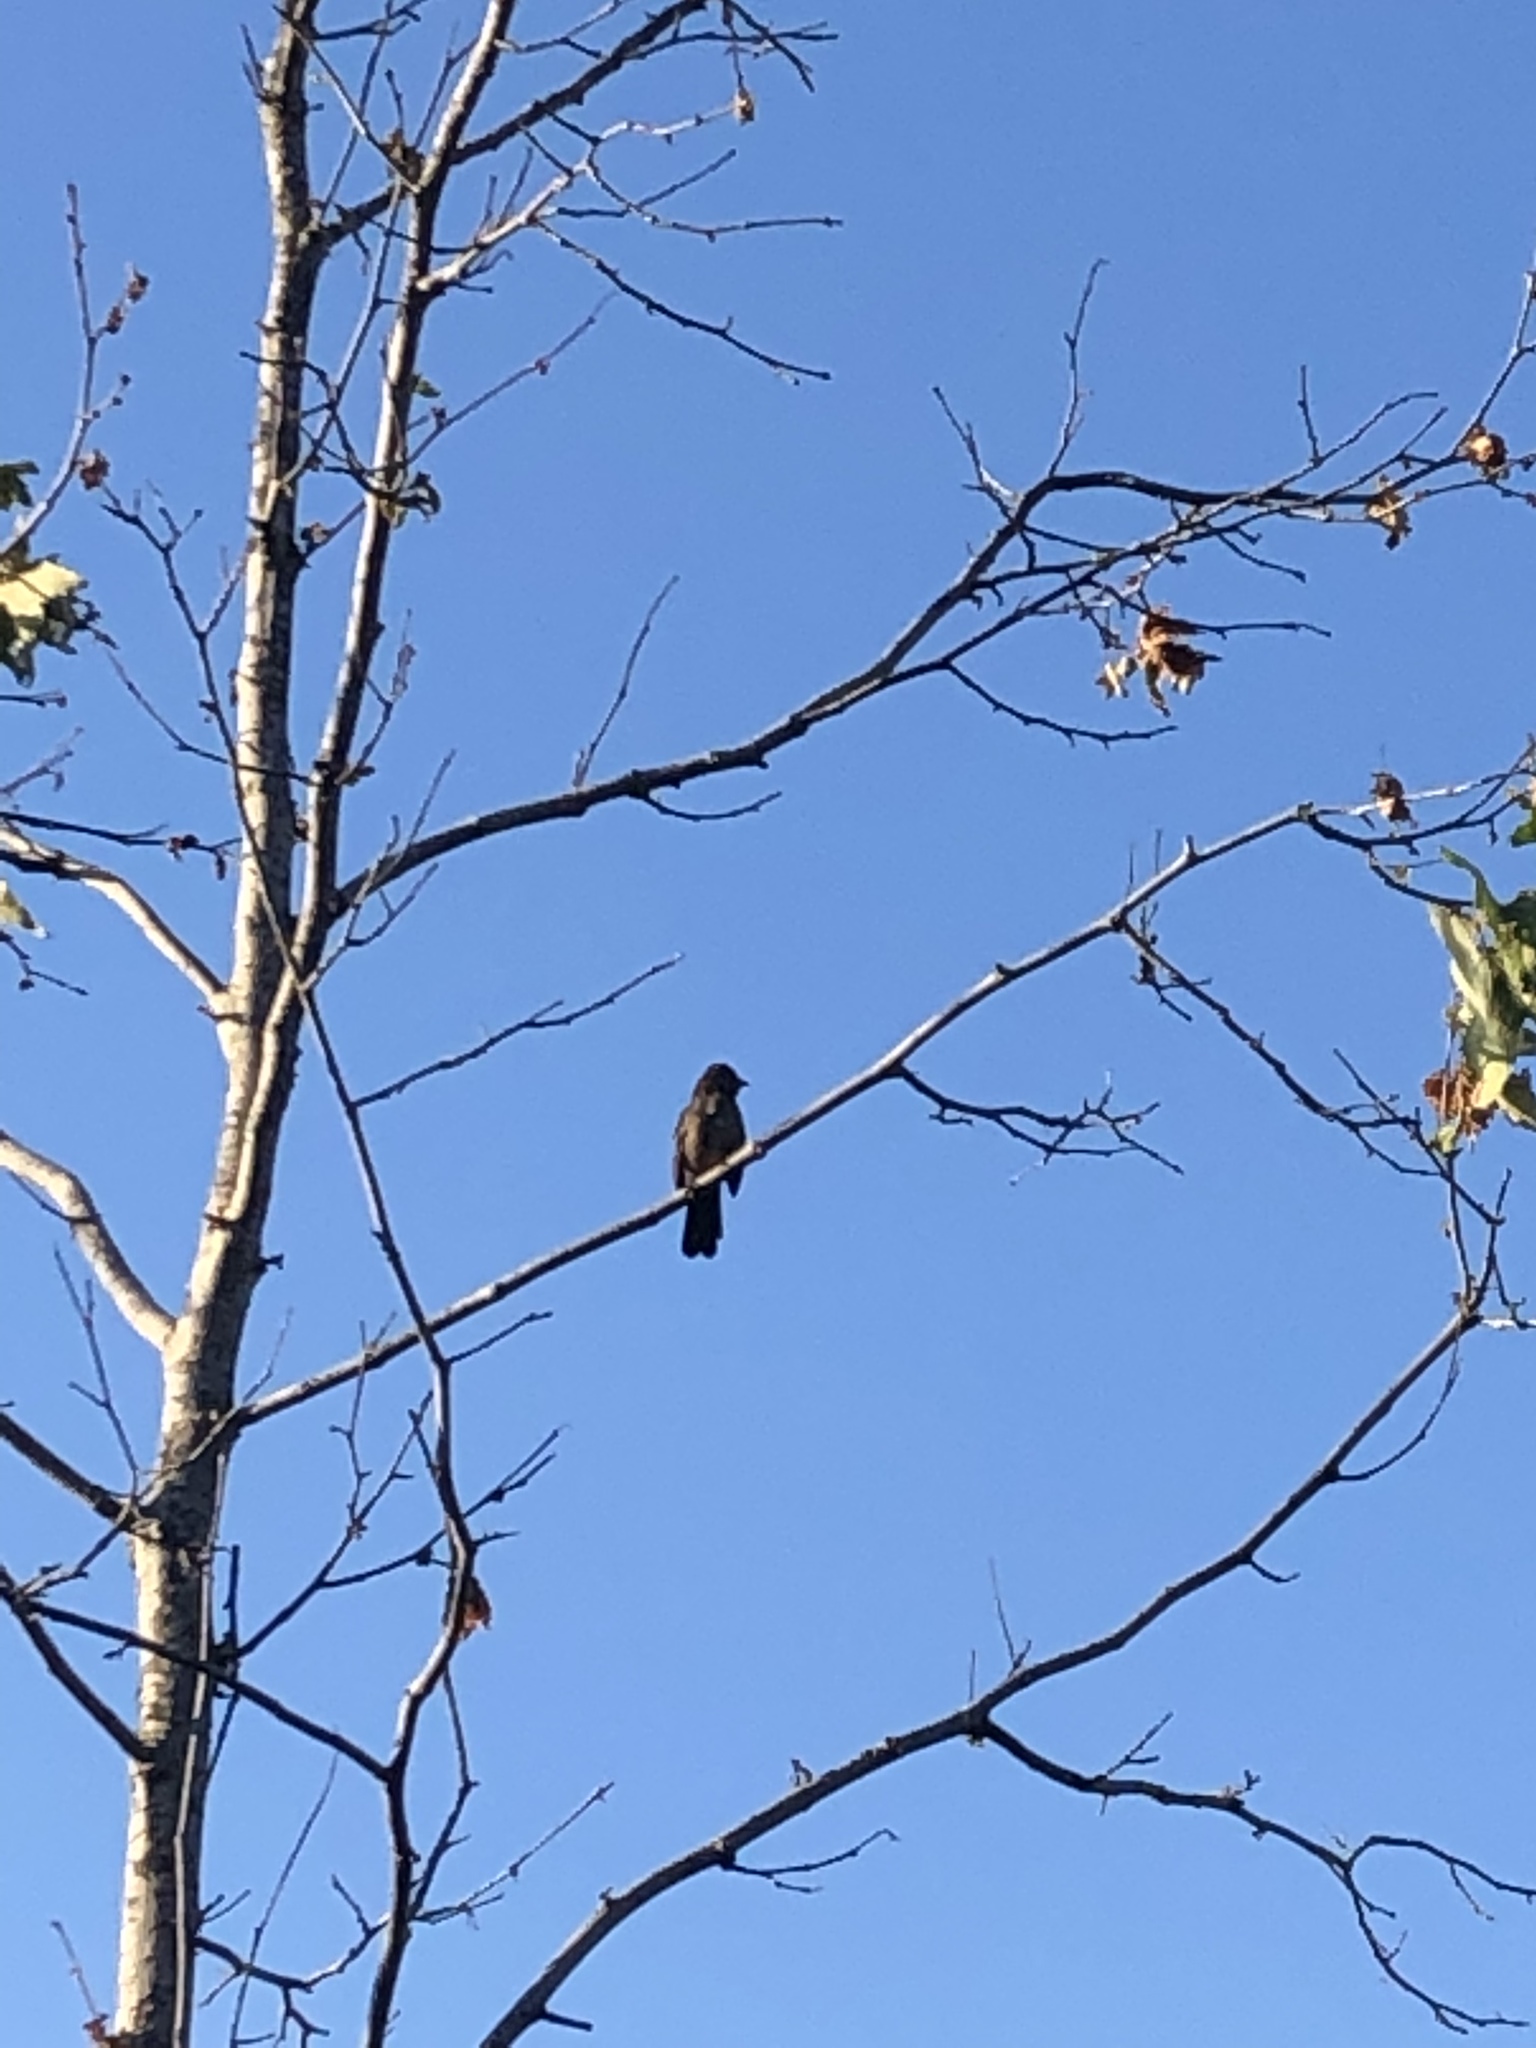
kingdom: Animalia
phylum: Chordata
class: Aves
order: Passeriformes
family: Passerellidae
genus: Melozone
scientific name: Melozone crissalis
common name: California towhee
